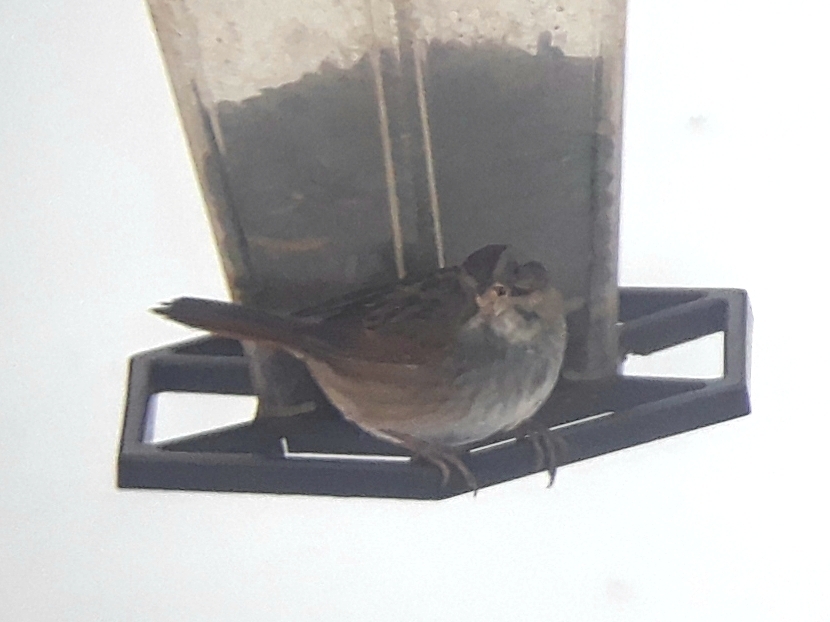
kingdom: Animalia
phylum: Chordata
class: Aves
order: Passeriformes
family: Passerellidae
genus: Melospiza
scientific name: Melospiza georgiana
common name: Swamp sparrow
